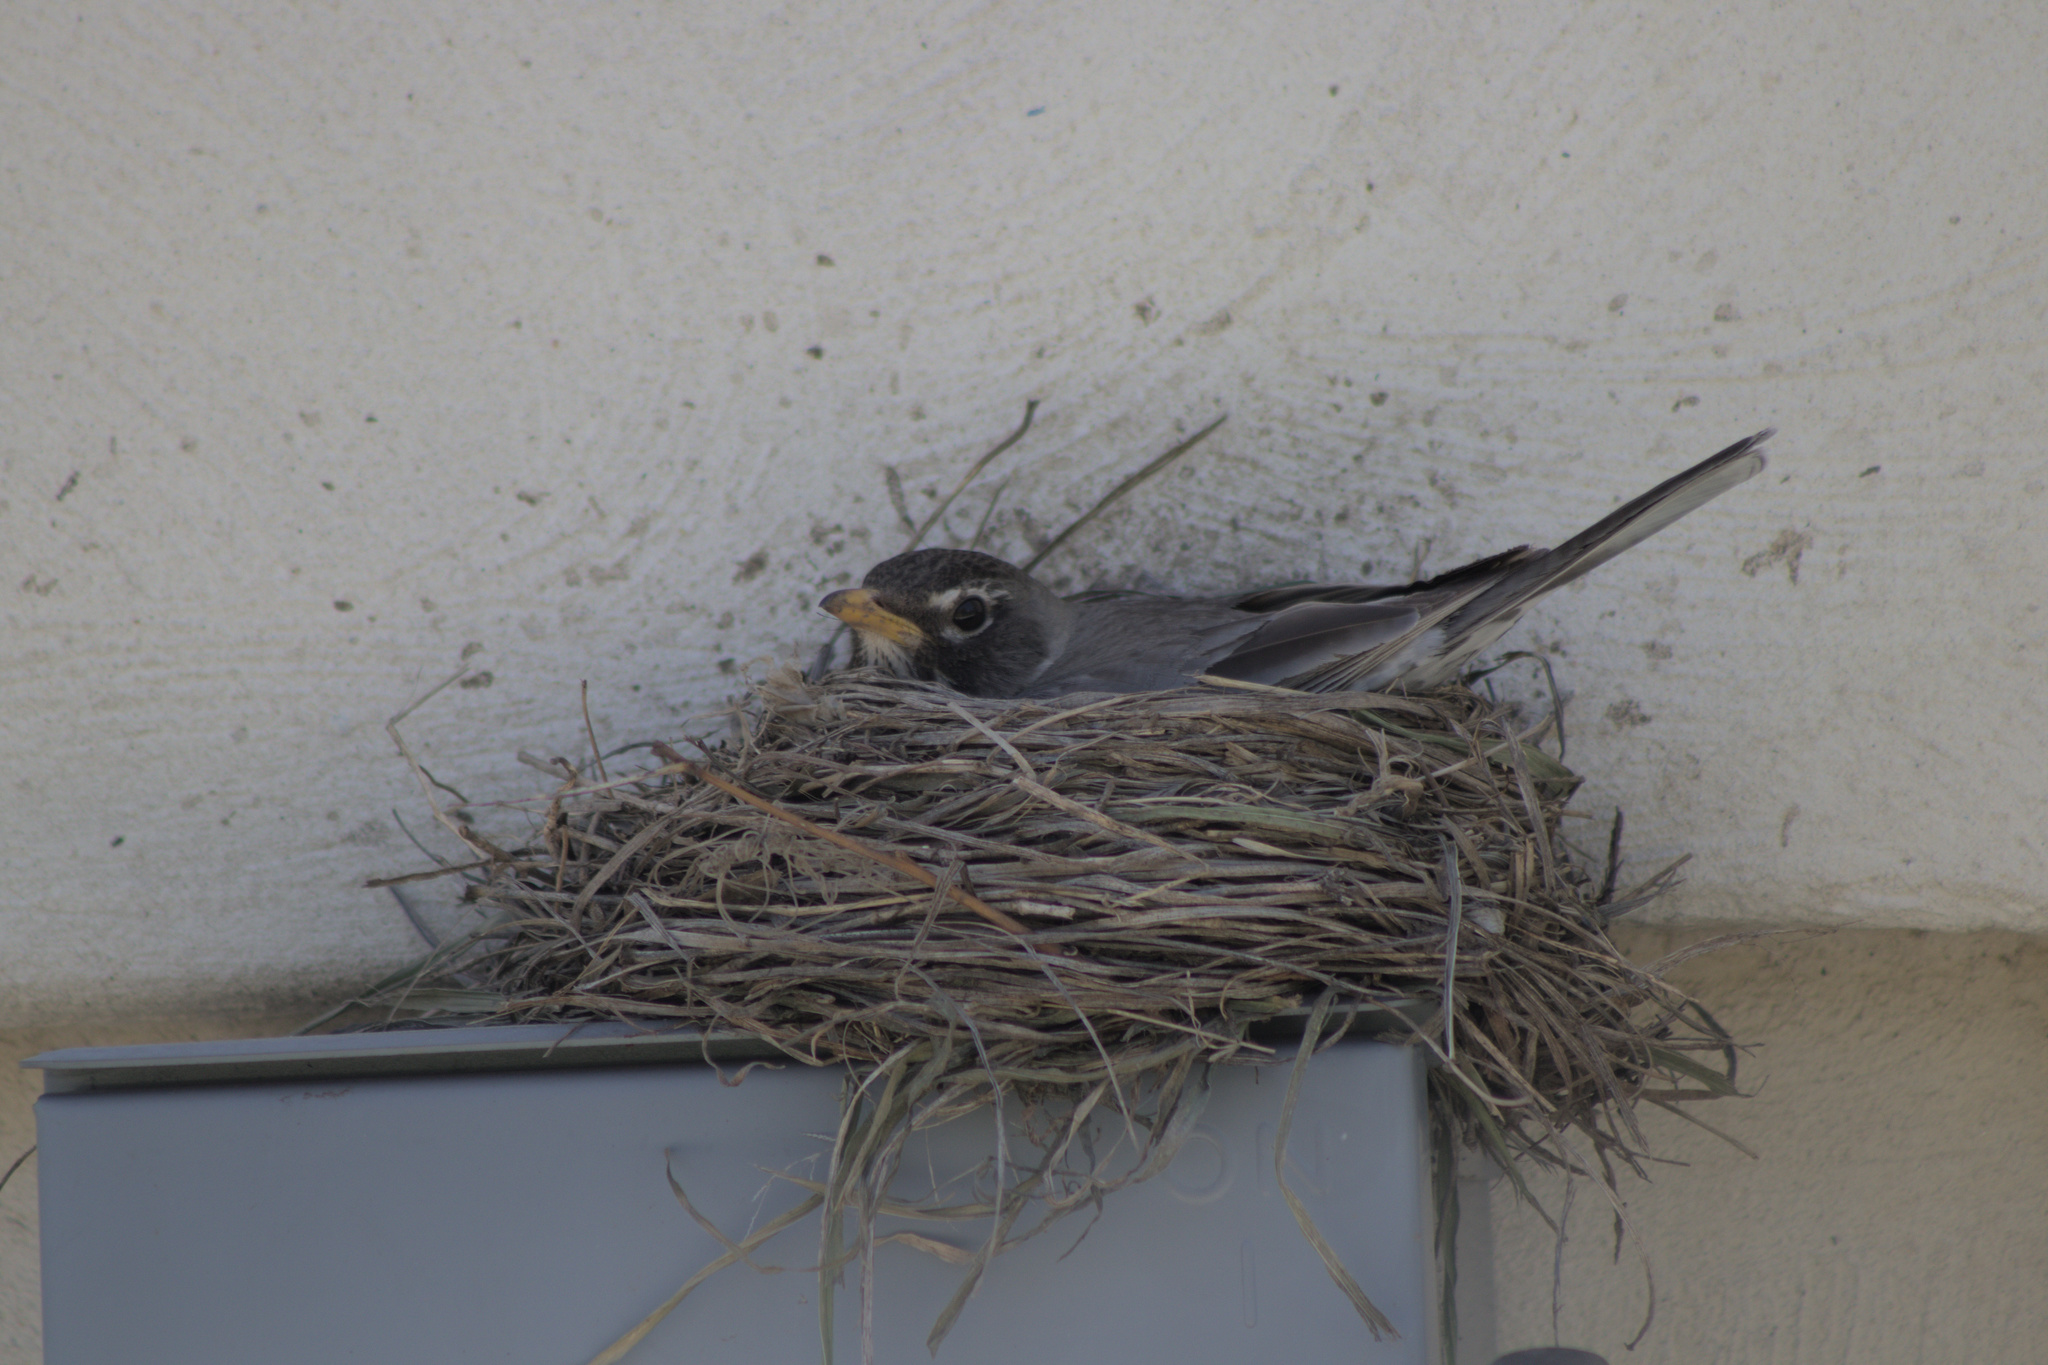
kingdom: Animalia
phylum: Chordata
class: Aves
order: Passeriformes
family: Turdidae
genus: Turdus
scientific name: Turdus migratorius
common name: American robin
